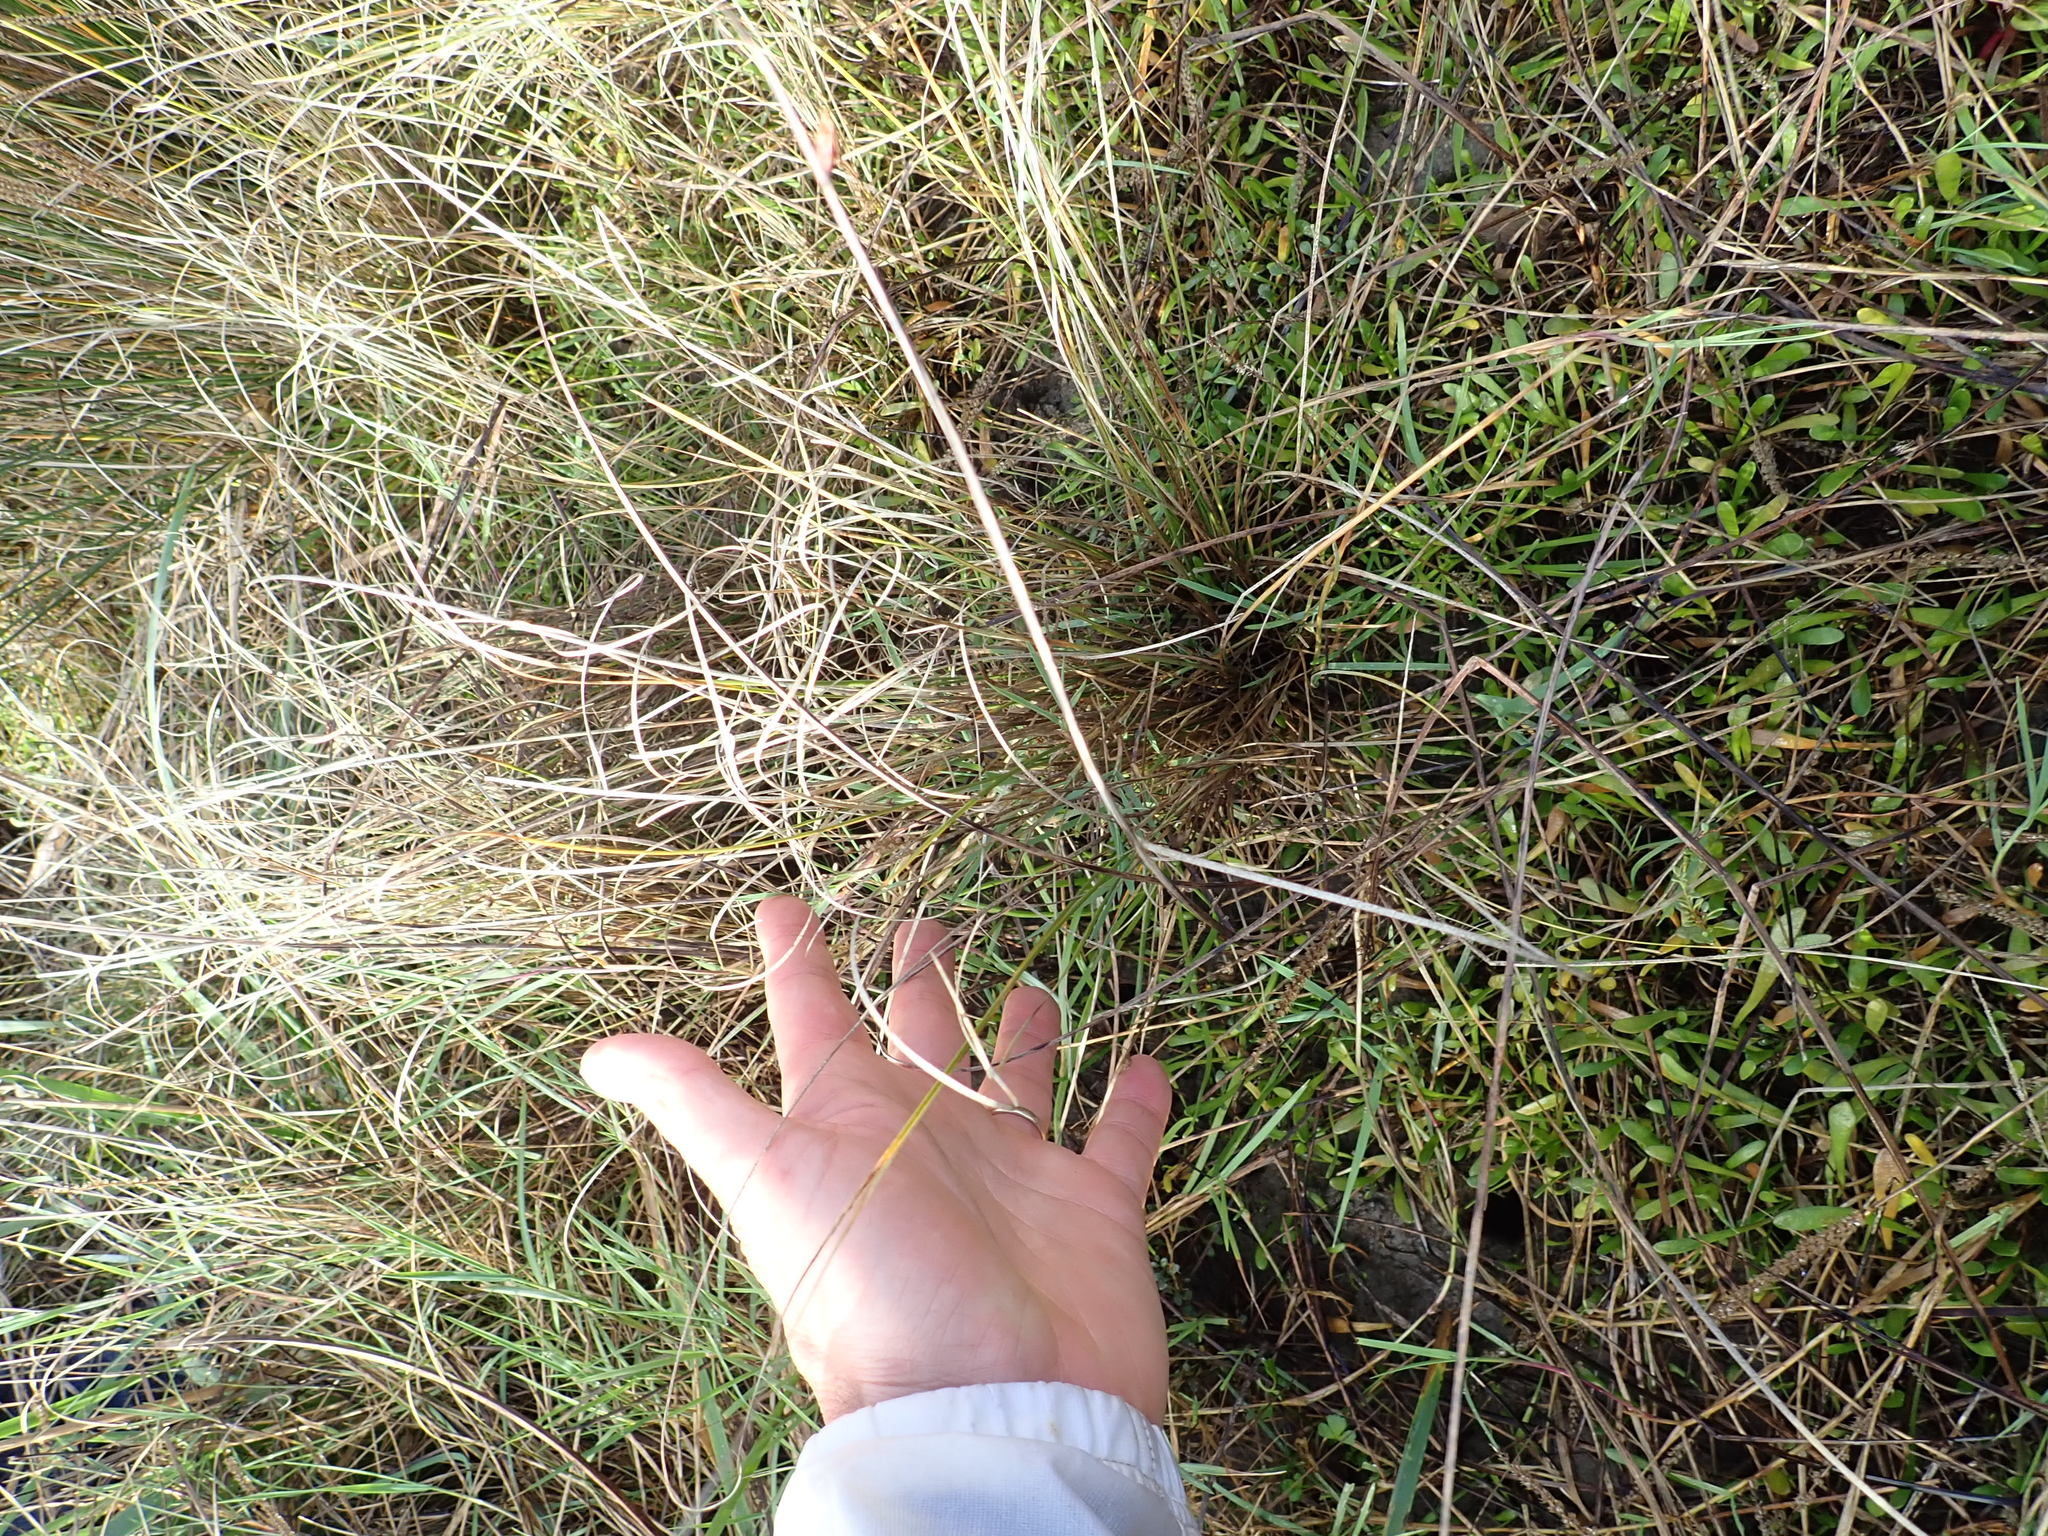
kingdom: Plantae
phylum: Tracheophyta
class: Magnoliopsida
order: Asterales
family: Goodeniaceae
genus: Goodenia
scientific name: Goodenia radicans
